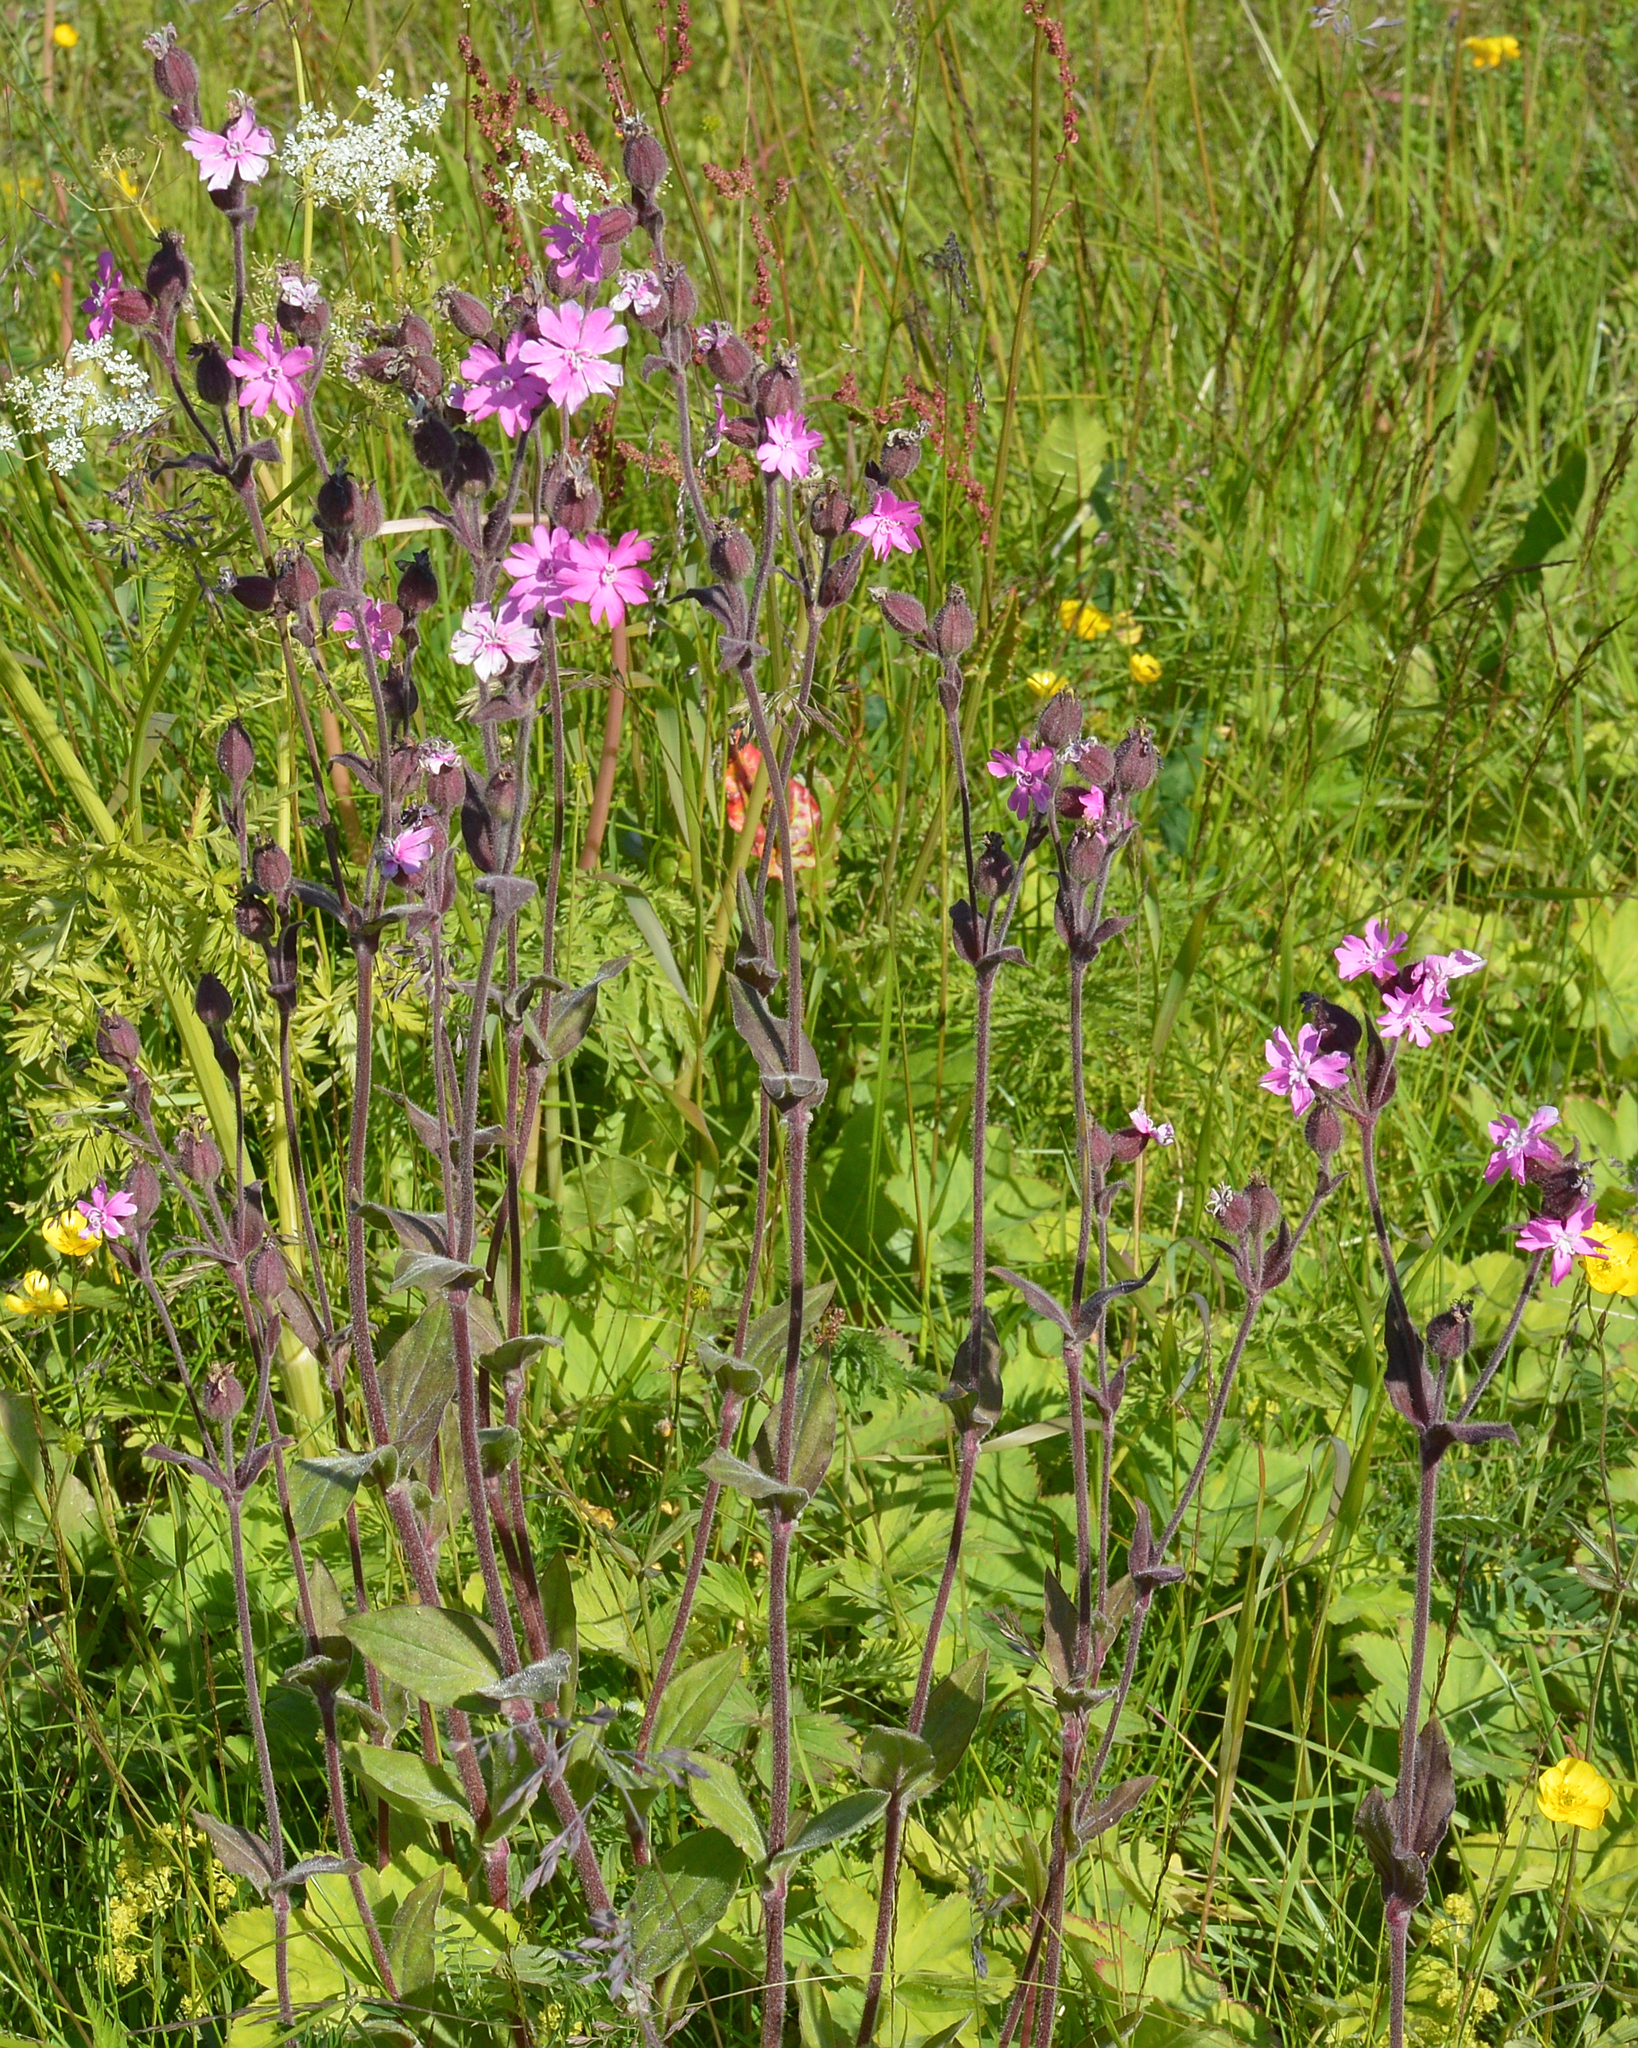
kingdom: Plantae
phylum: Tracheophyta
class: Magnoliopsida
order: Caryophyllales
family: Caryophyllaceae
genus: Silene
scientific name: Silene dioica
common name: Red campion
